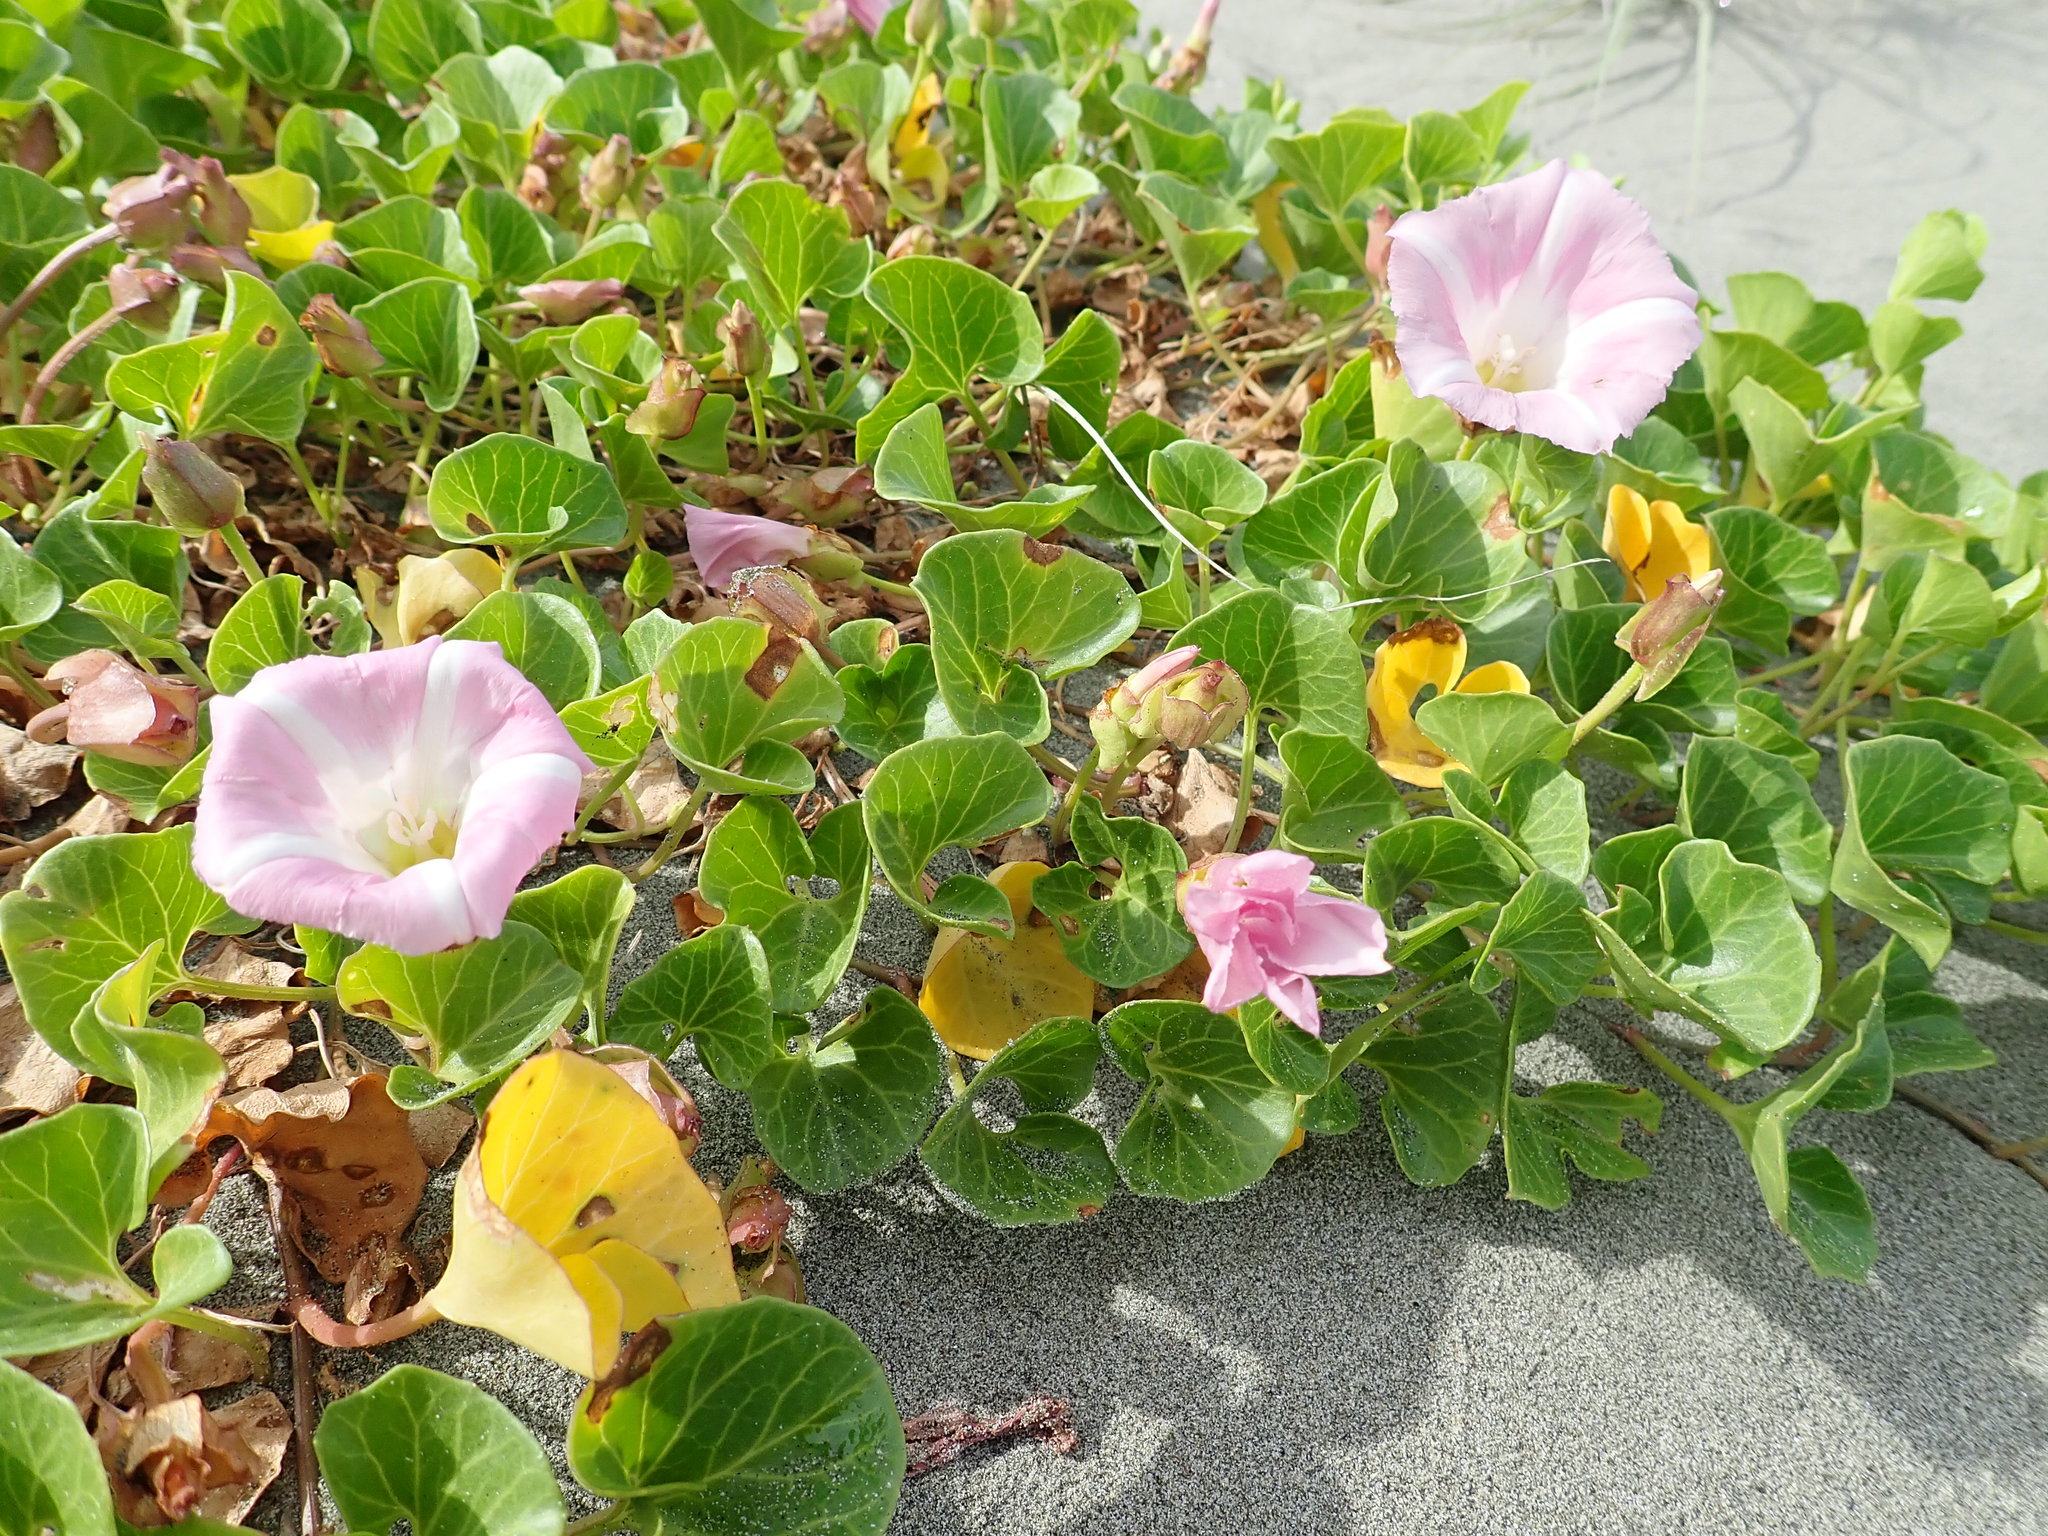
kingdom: Plantae
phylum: Tracheophyta
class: Magnoliopsida
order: Solanales
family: Convolvulaceae
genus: Calystegia
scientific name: Calystegia soldanella
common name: Sea bindweed
